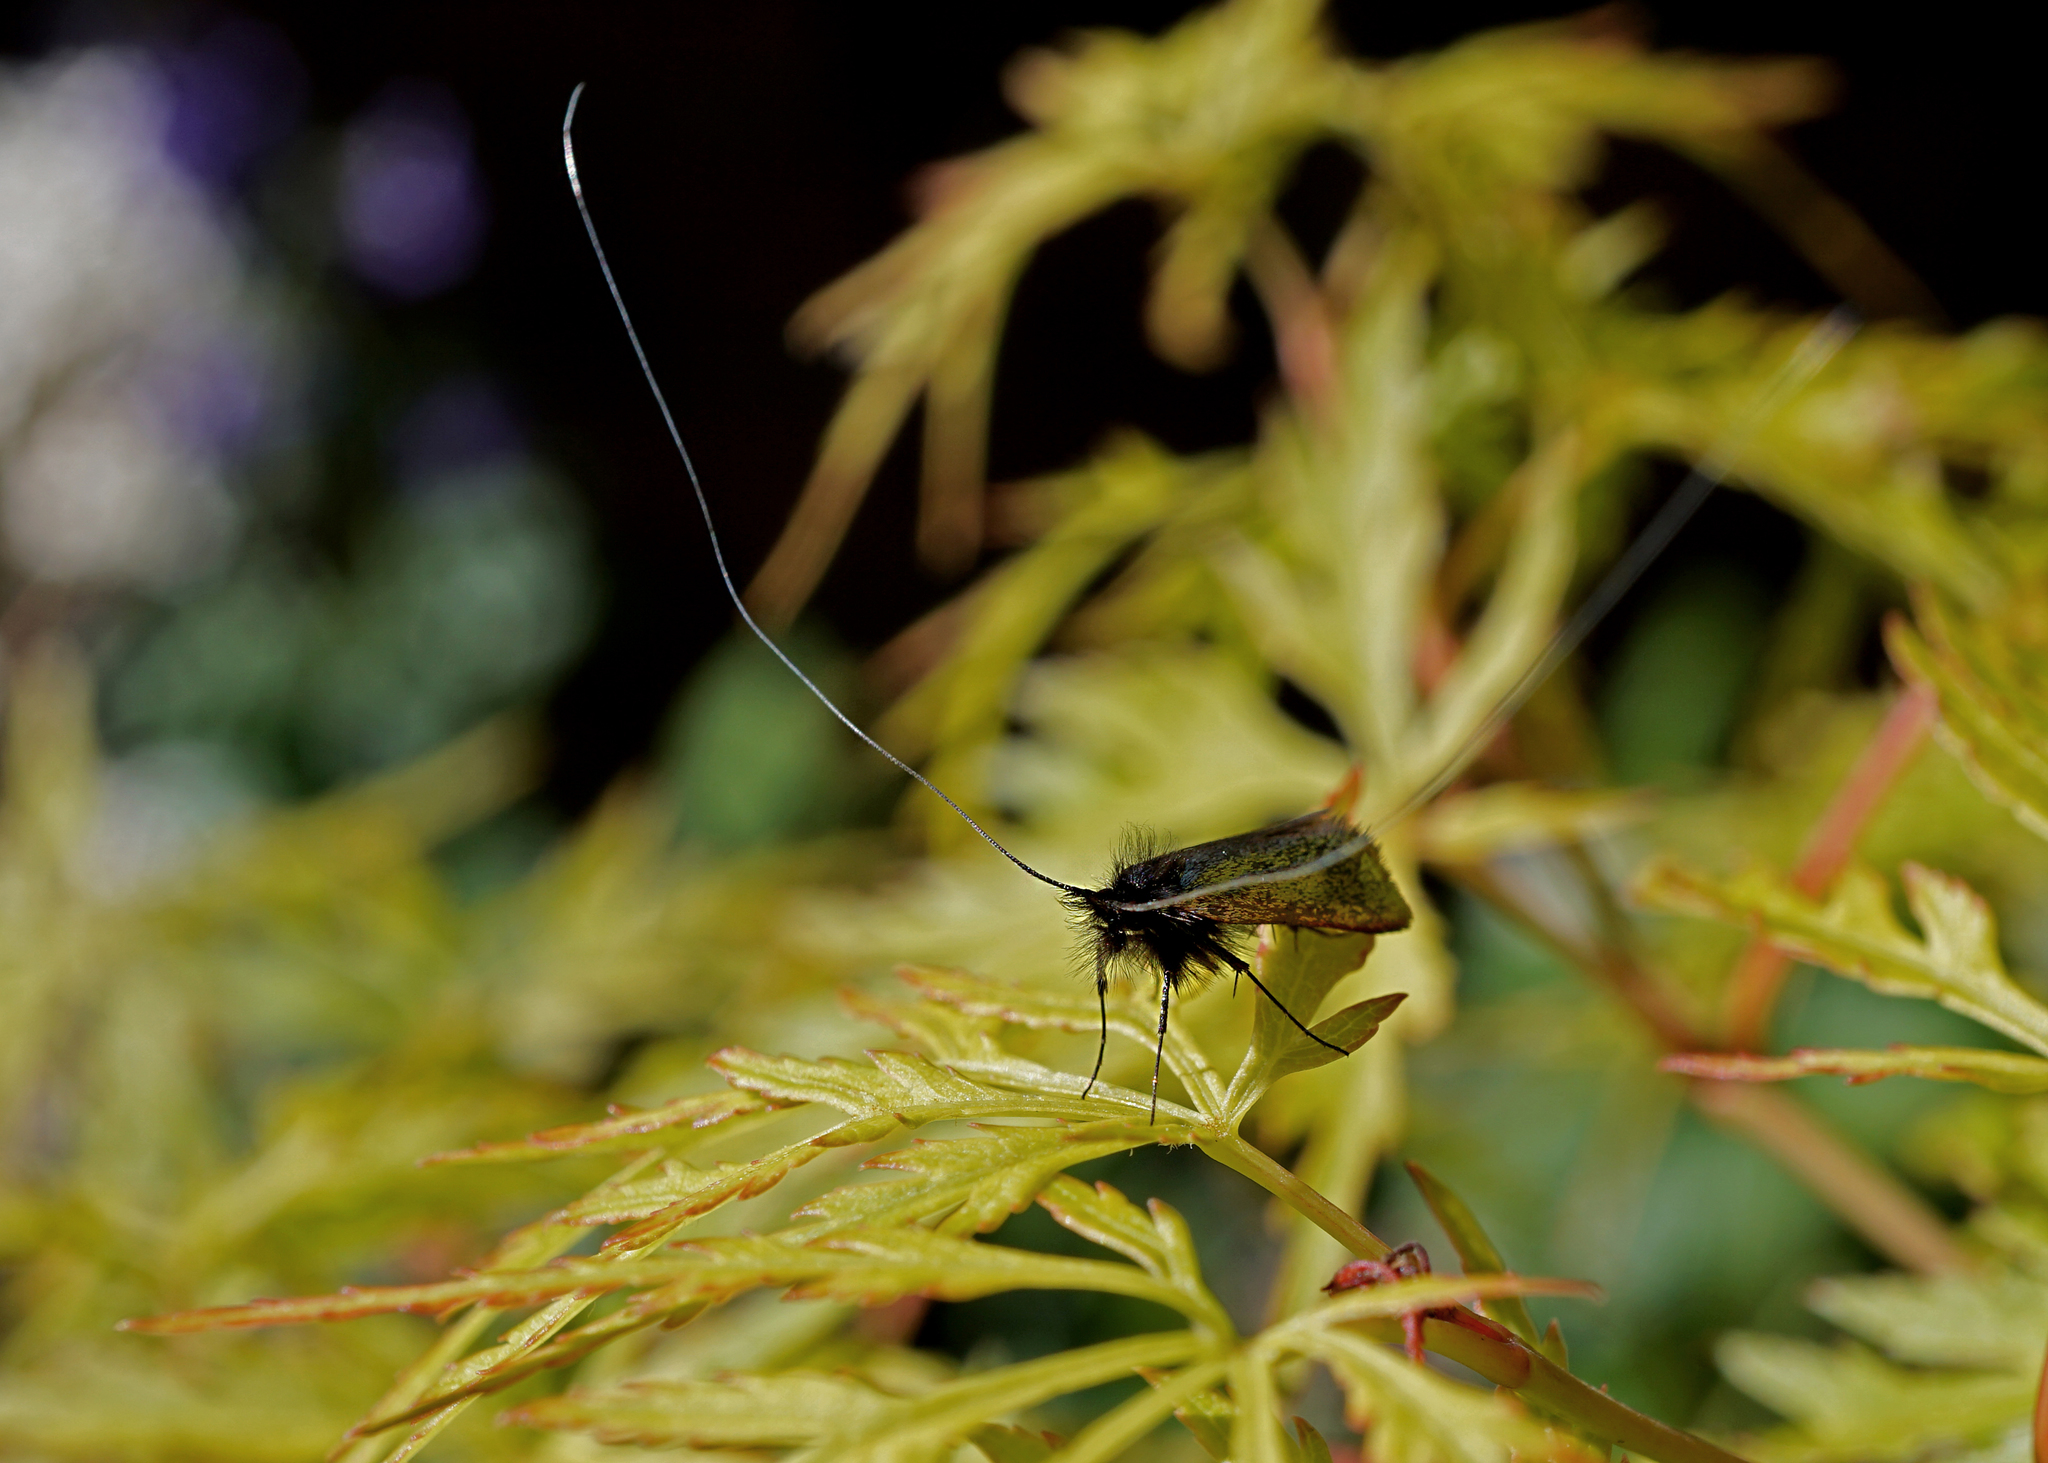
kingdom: Animalia
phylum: Arthropoda
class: Insecta
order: Lepidoptera
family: Adelidae
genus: Adela
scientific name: Adela viridella
